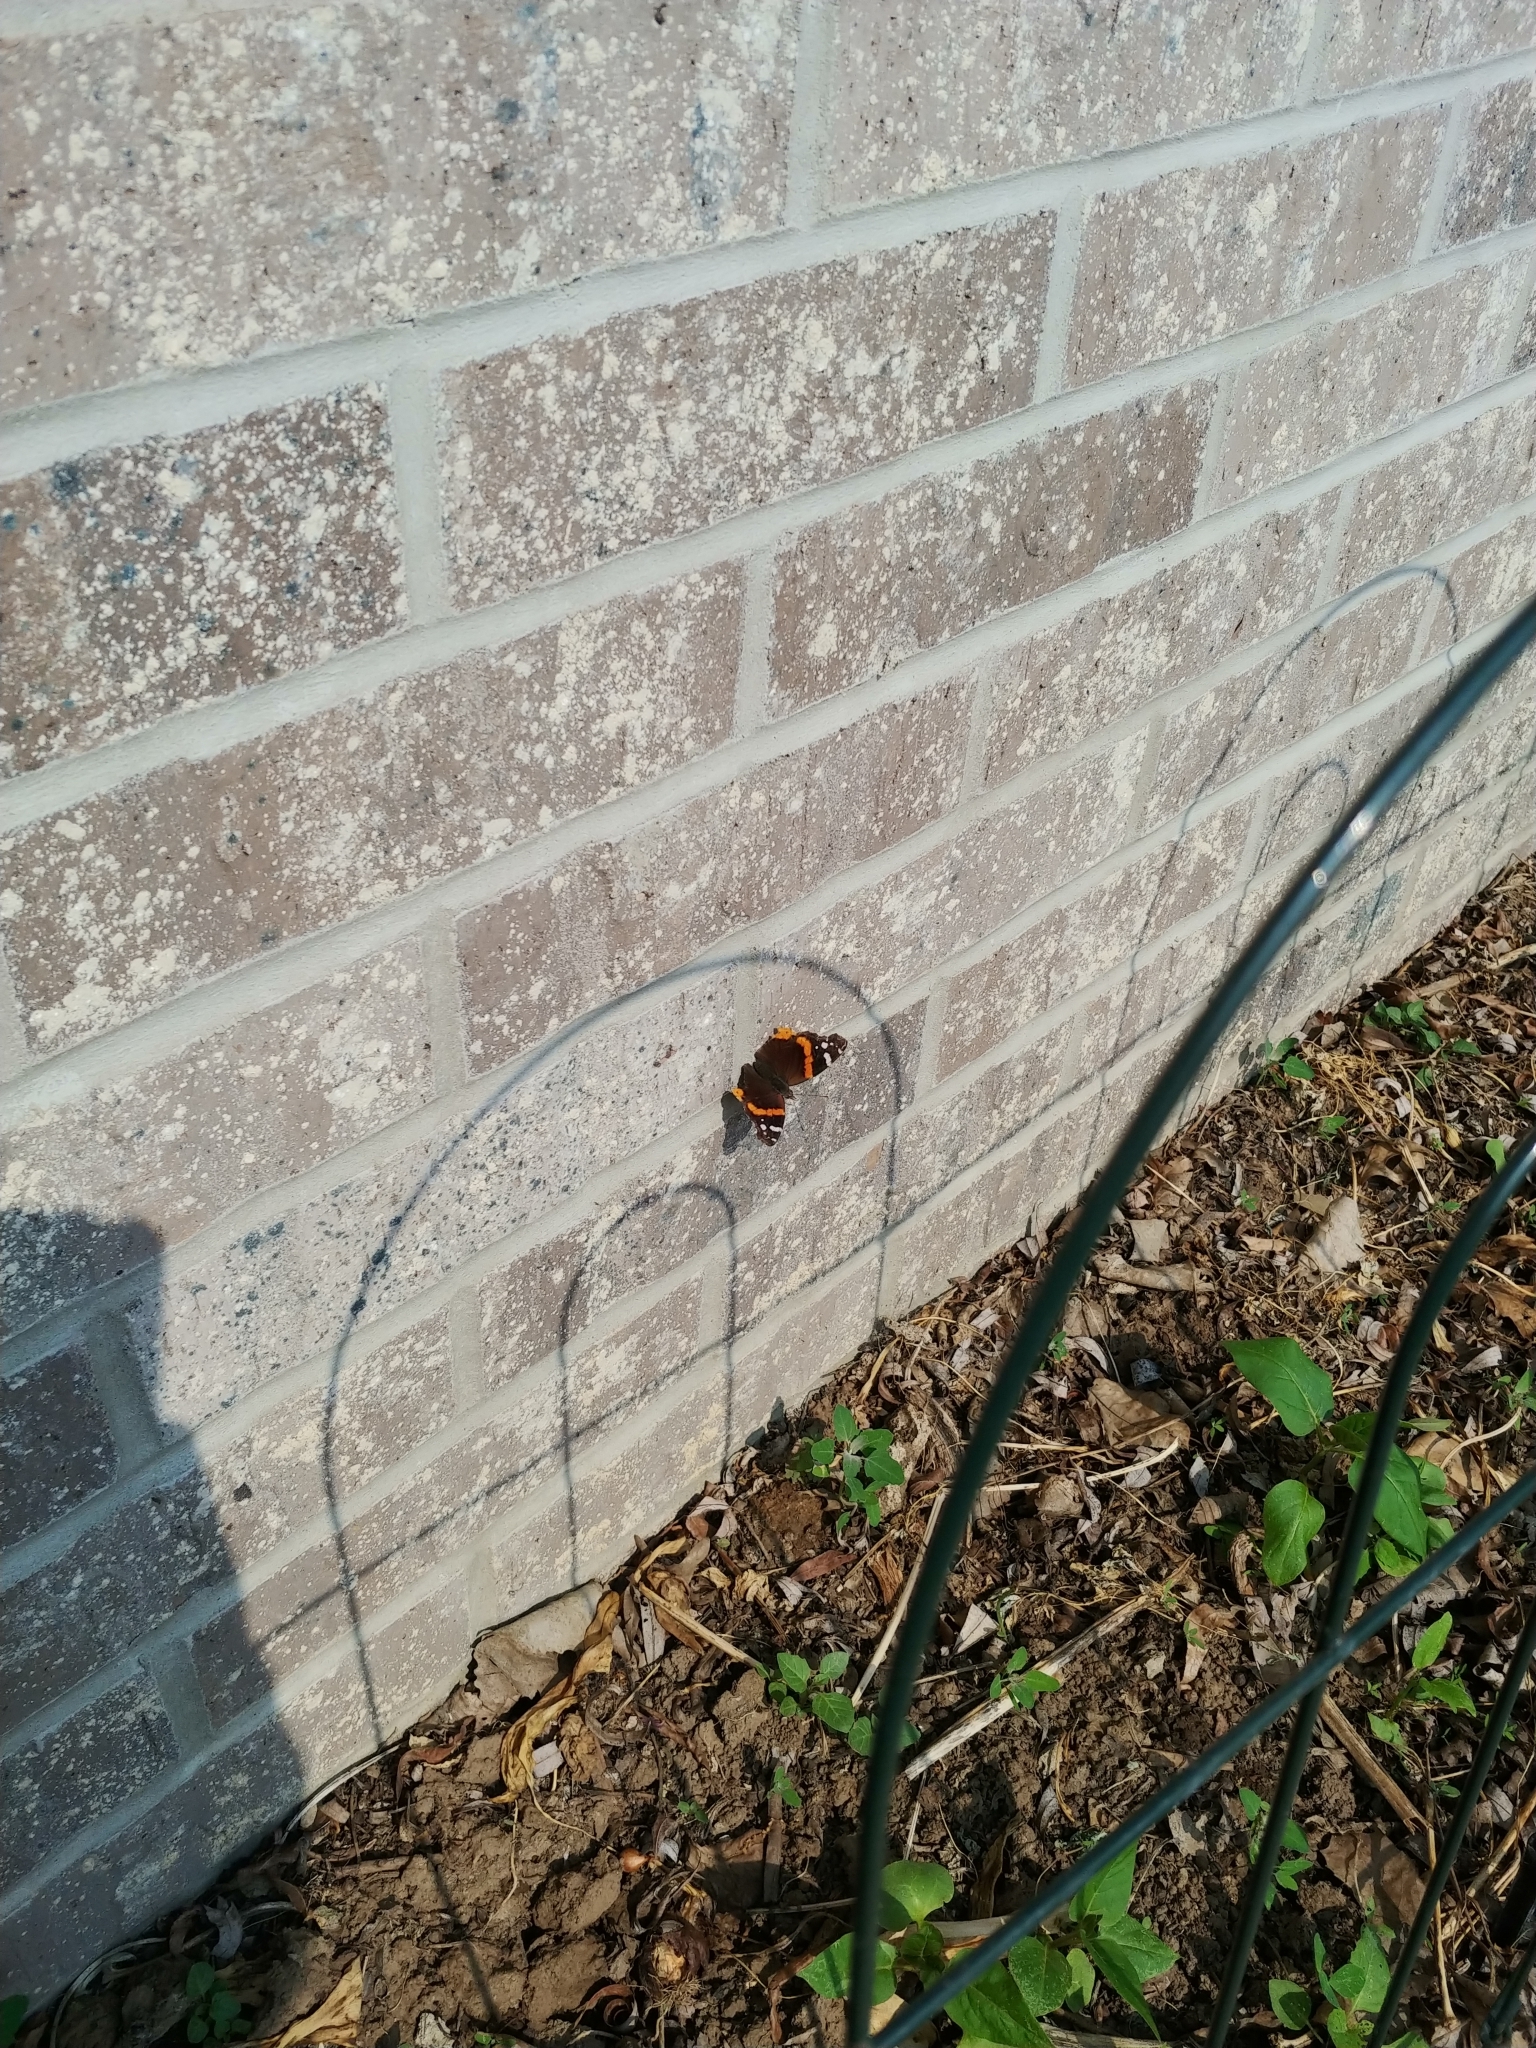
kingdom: Animalia
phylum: Arthropoda
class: Insecta
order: Lepidoptera
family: Nymphalidae
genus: Vanessa
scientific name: Vanessa atalanta
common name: Red admiral
